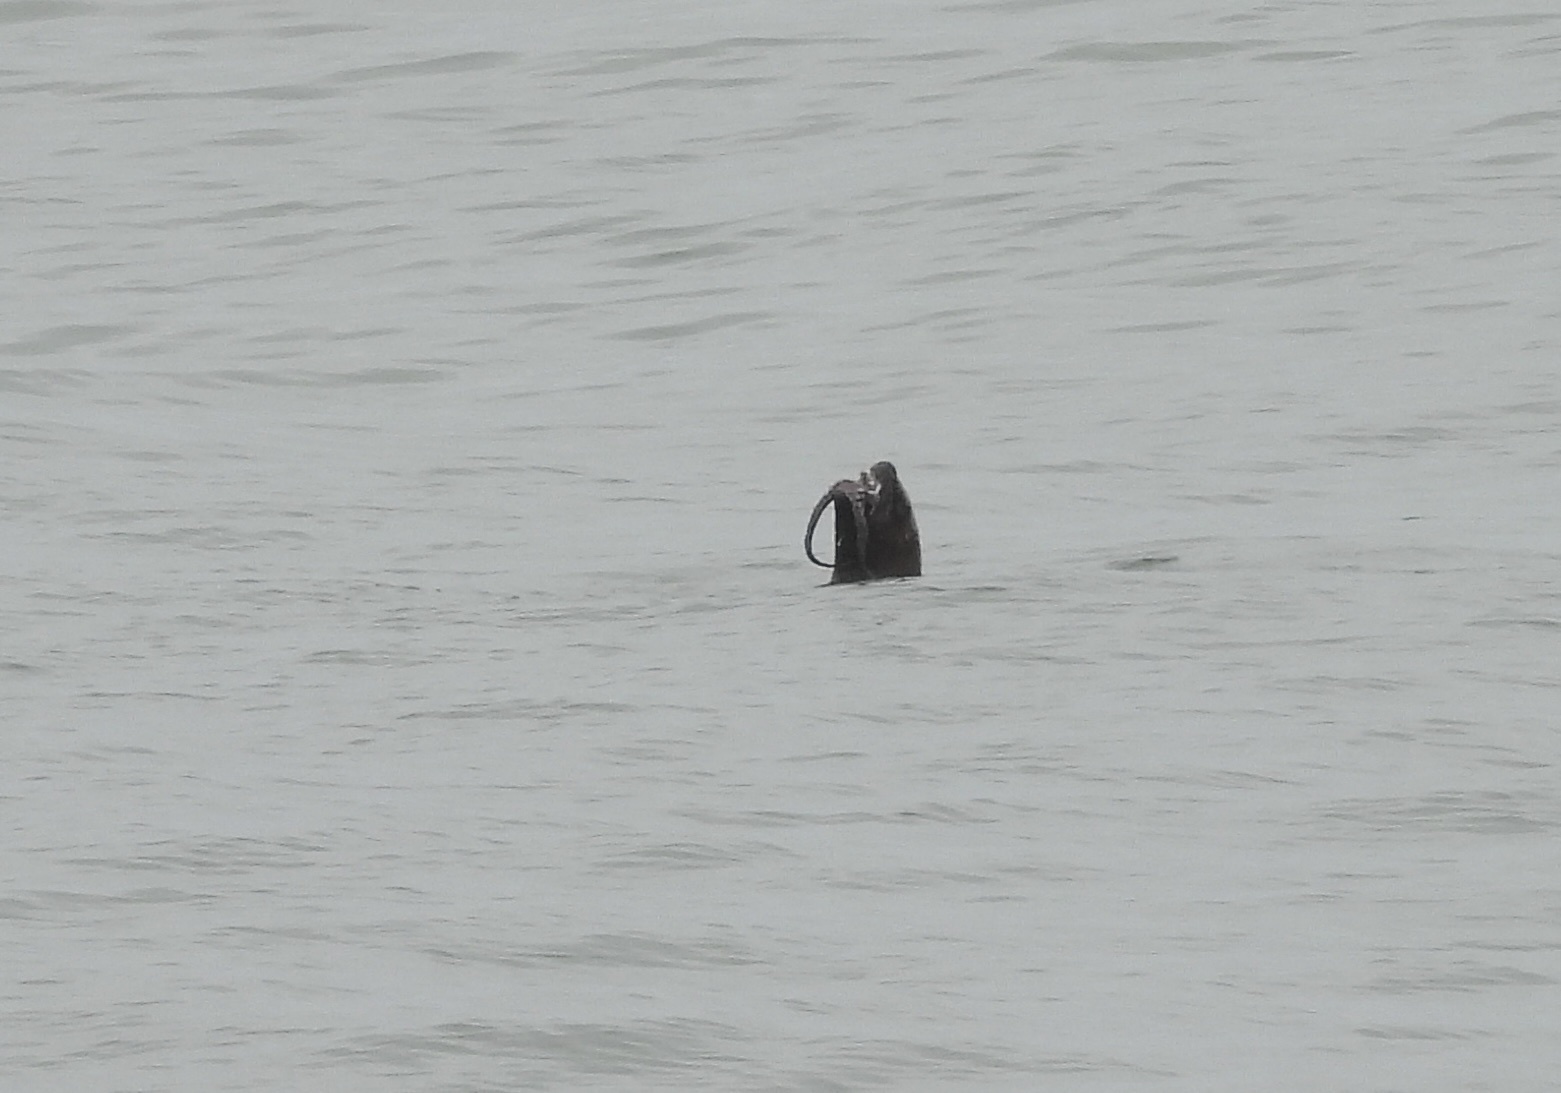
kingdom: Animalia
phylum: Chordata
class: Mammalia
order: Carnivora
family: Otariidae
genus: Otaria
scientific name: Otaria byronia
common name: South american sea lion
